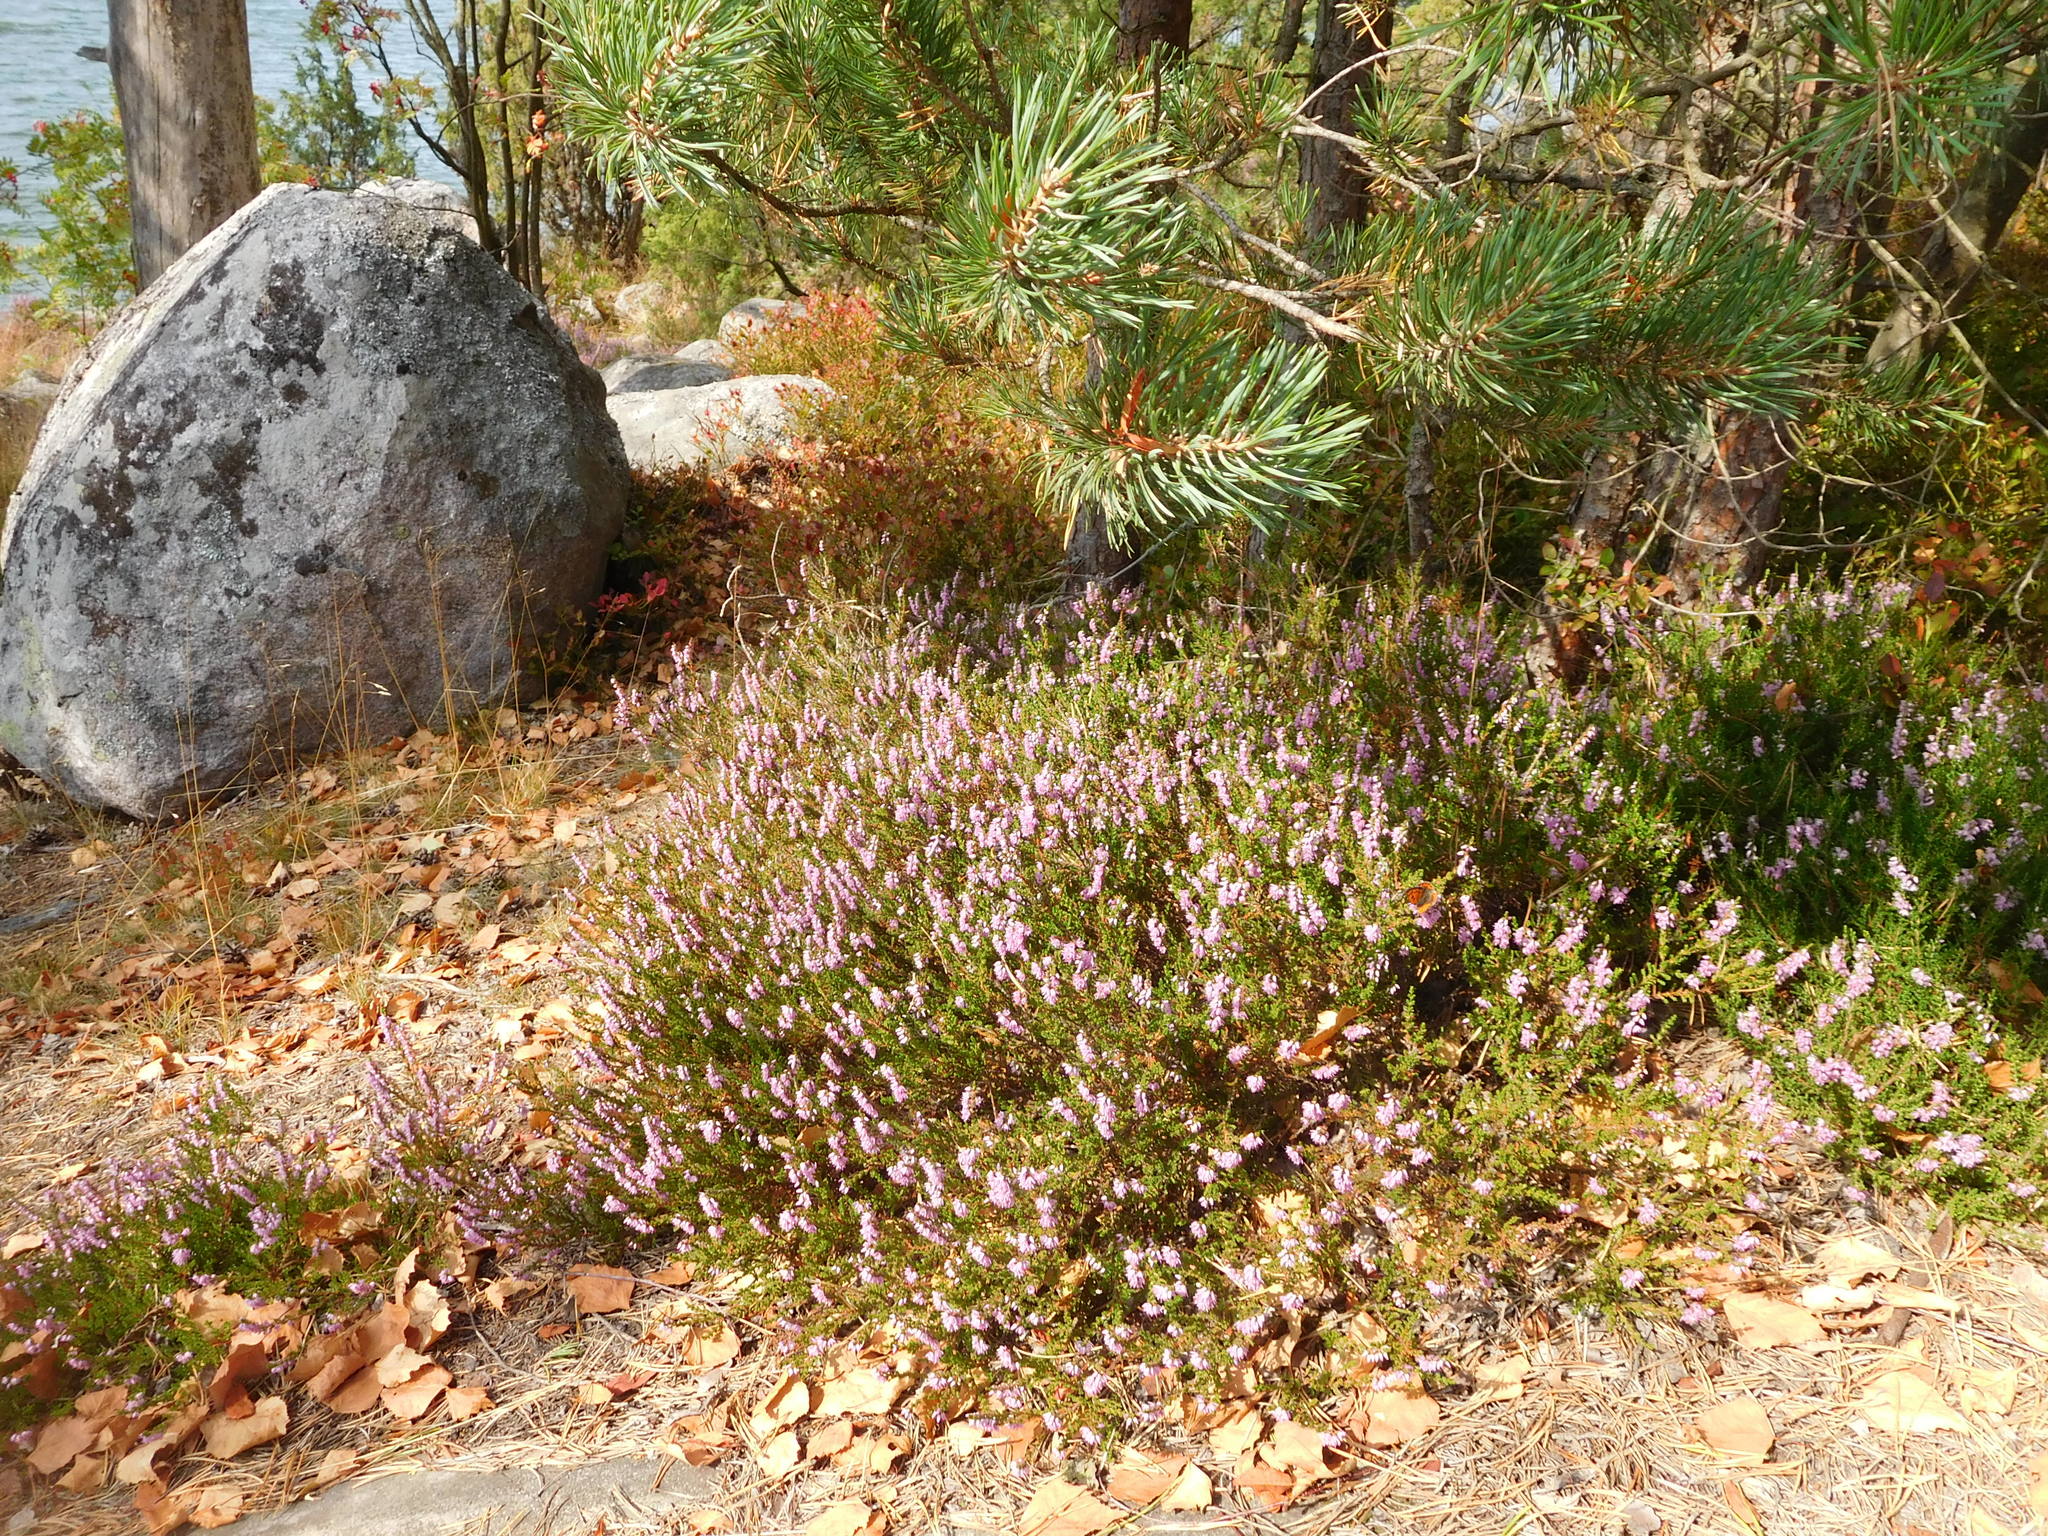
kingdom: Plantae
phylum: Tracheophyta
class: Magnoliopsida
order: Ericales
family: Ericaceae
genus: Calluna
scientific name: Calluna vulgaris
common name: Heather
